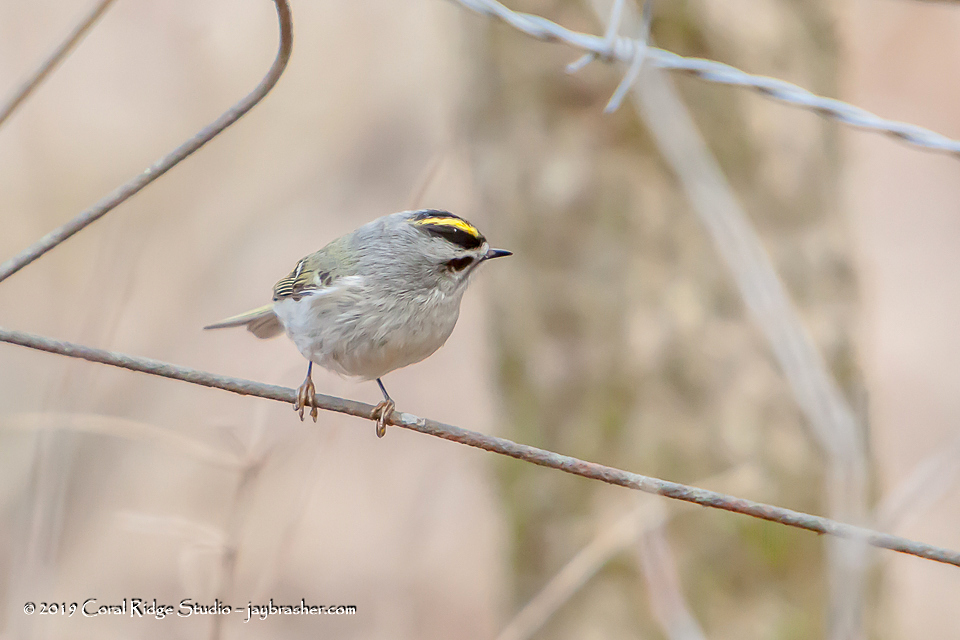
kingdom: Animalia
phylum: Chordata
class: Aves
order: Passeriformes
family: Regulidae
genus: Regulus
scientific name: Regulus satrapa
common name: Golden-crowned kinglet
